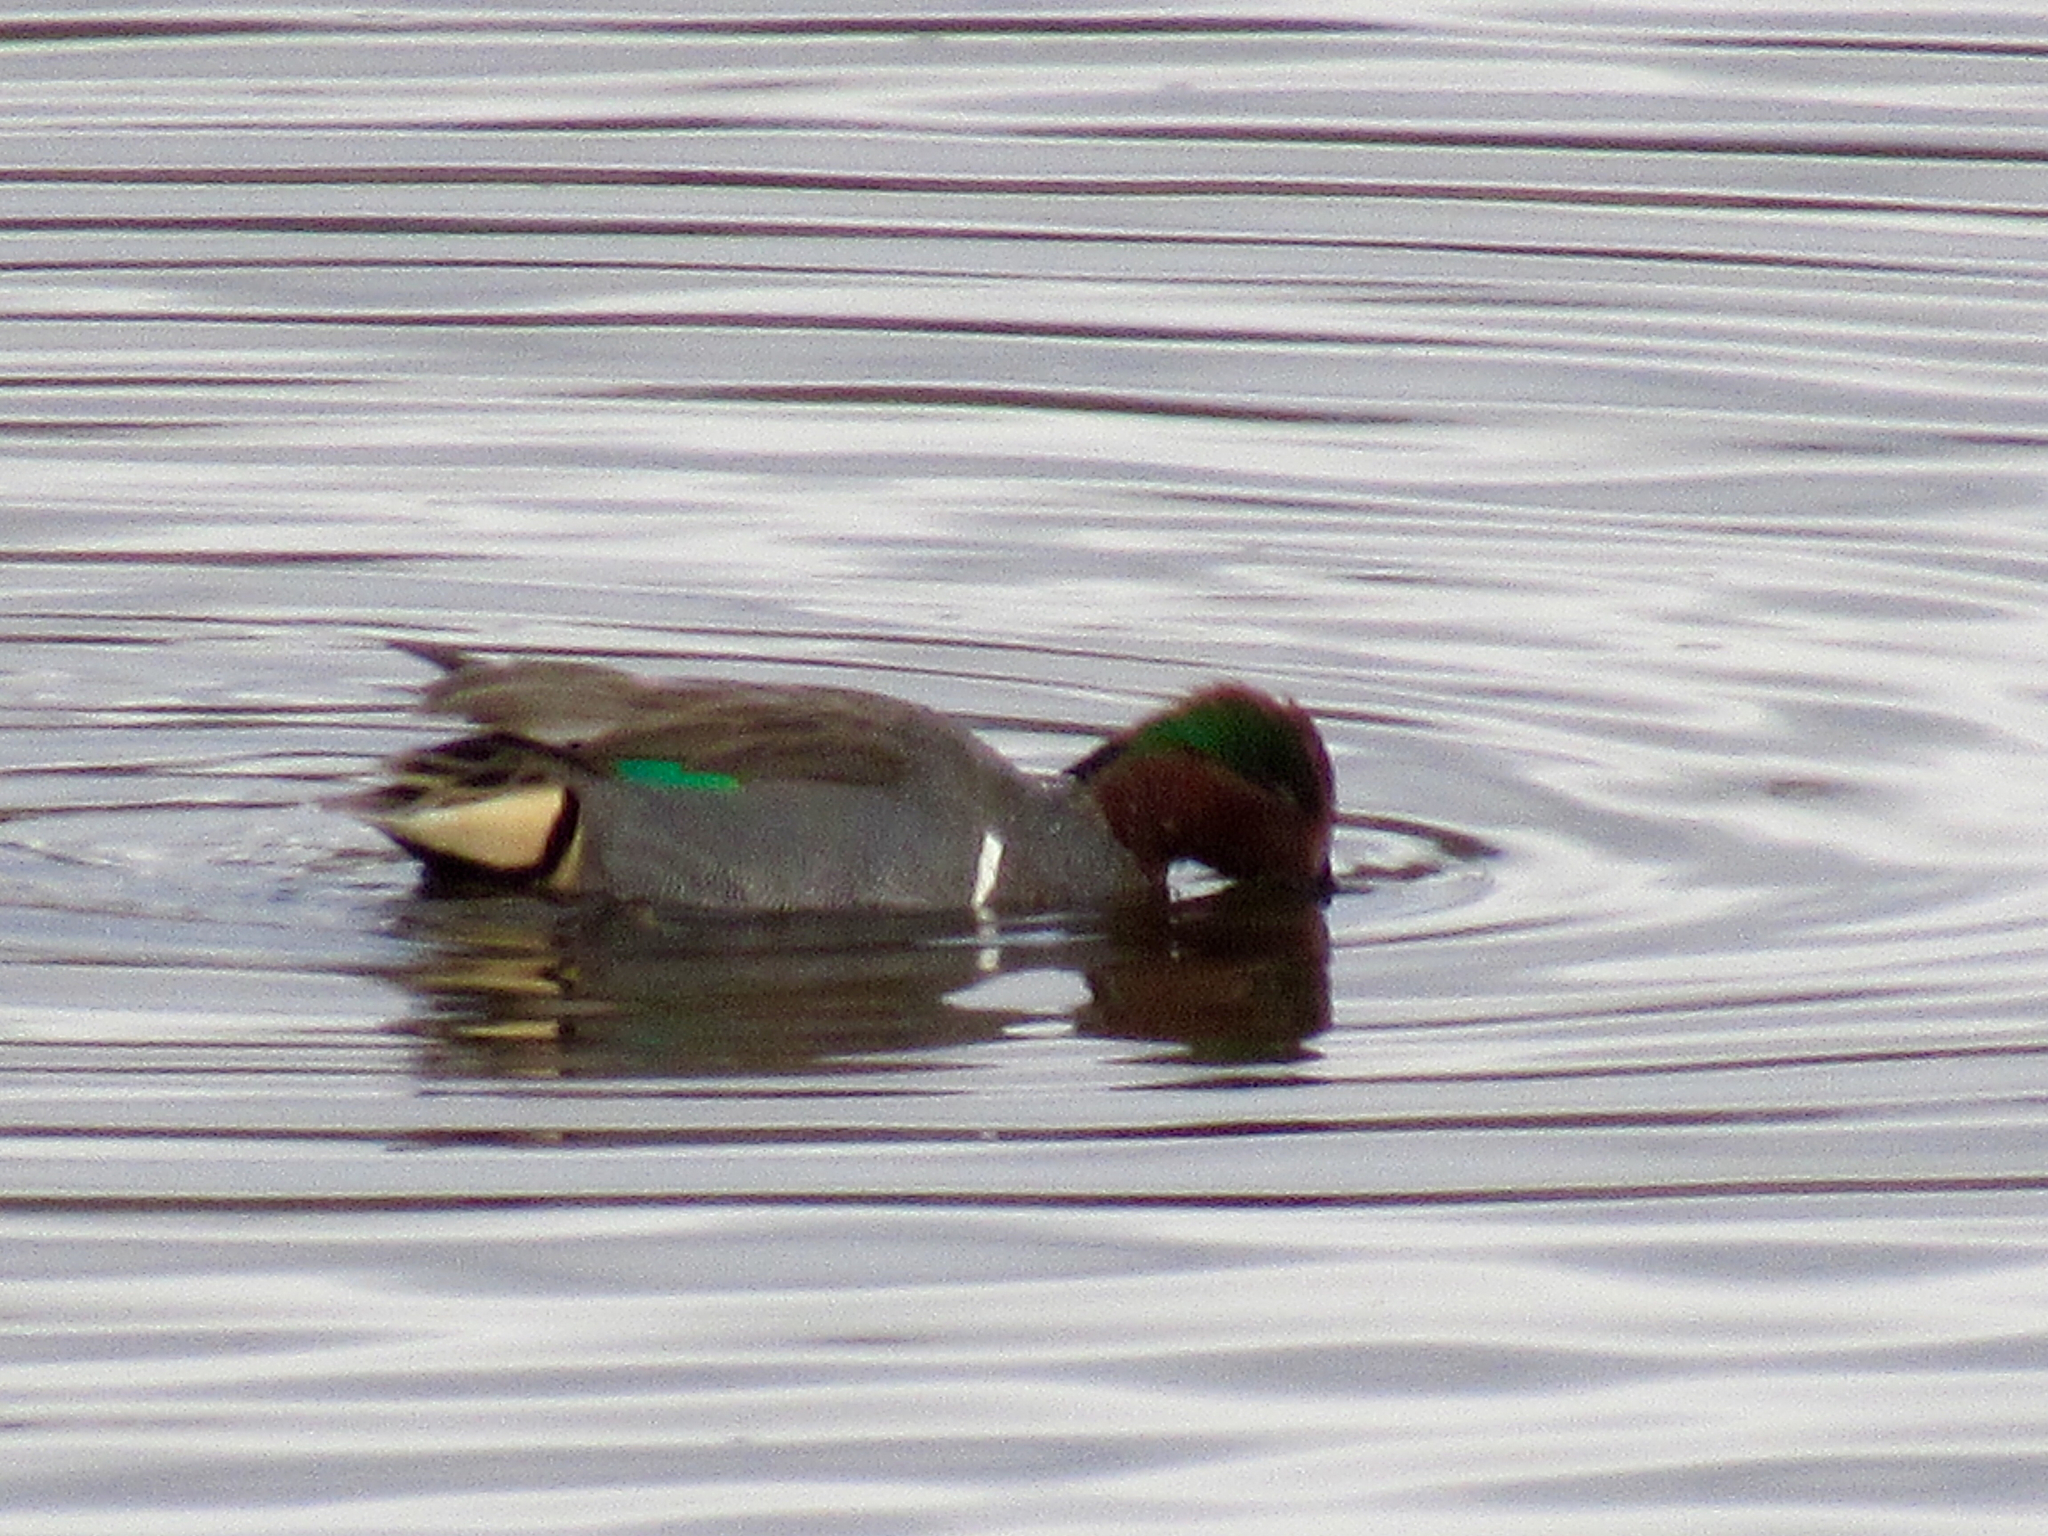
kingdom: Animalia
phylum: Chordata
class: Aves
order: Anseriformes
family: Anatidae
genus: Anas
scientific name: Anas crecca
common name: Eurasian teal
